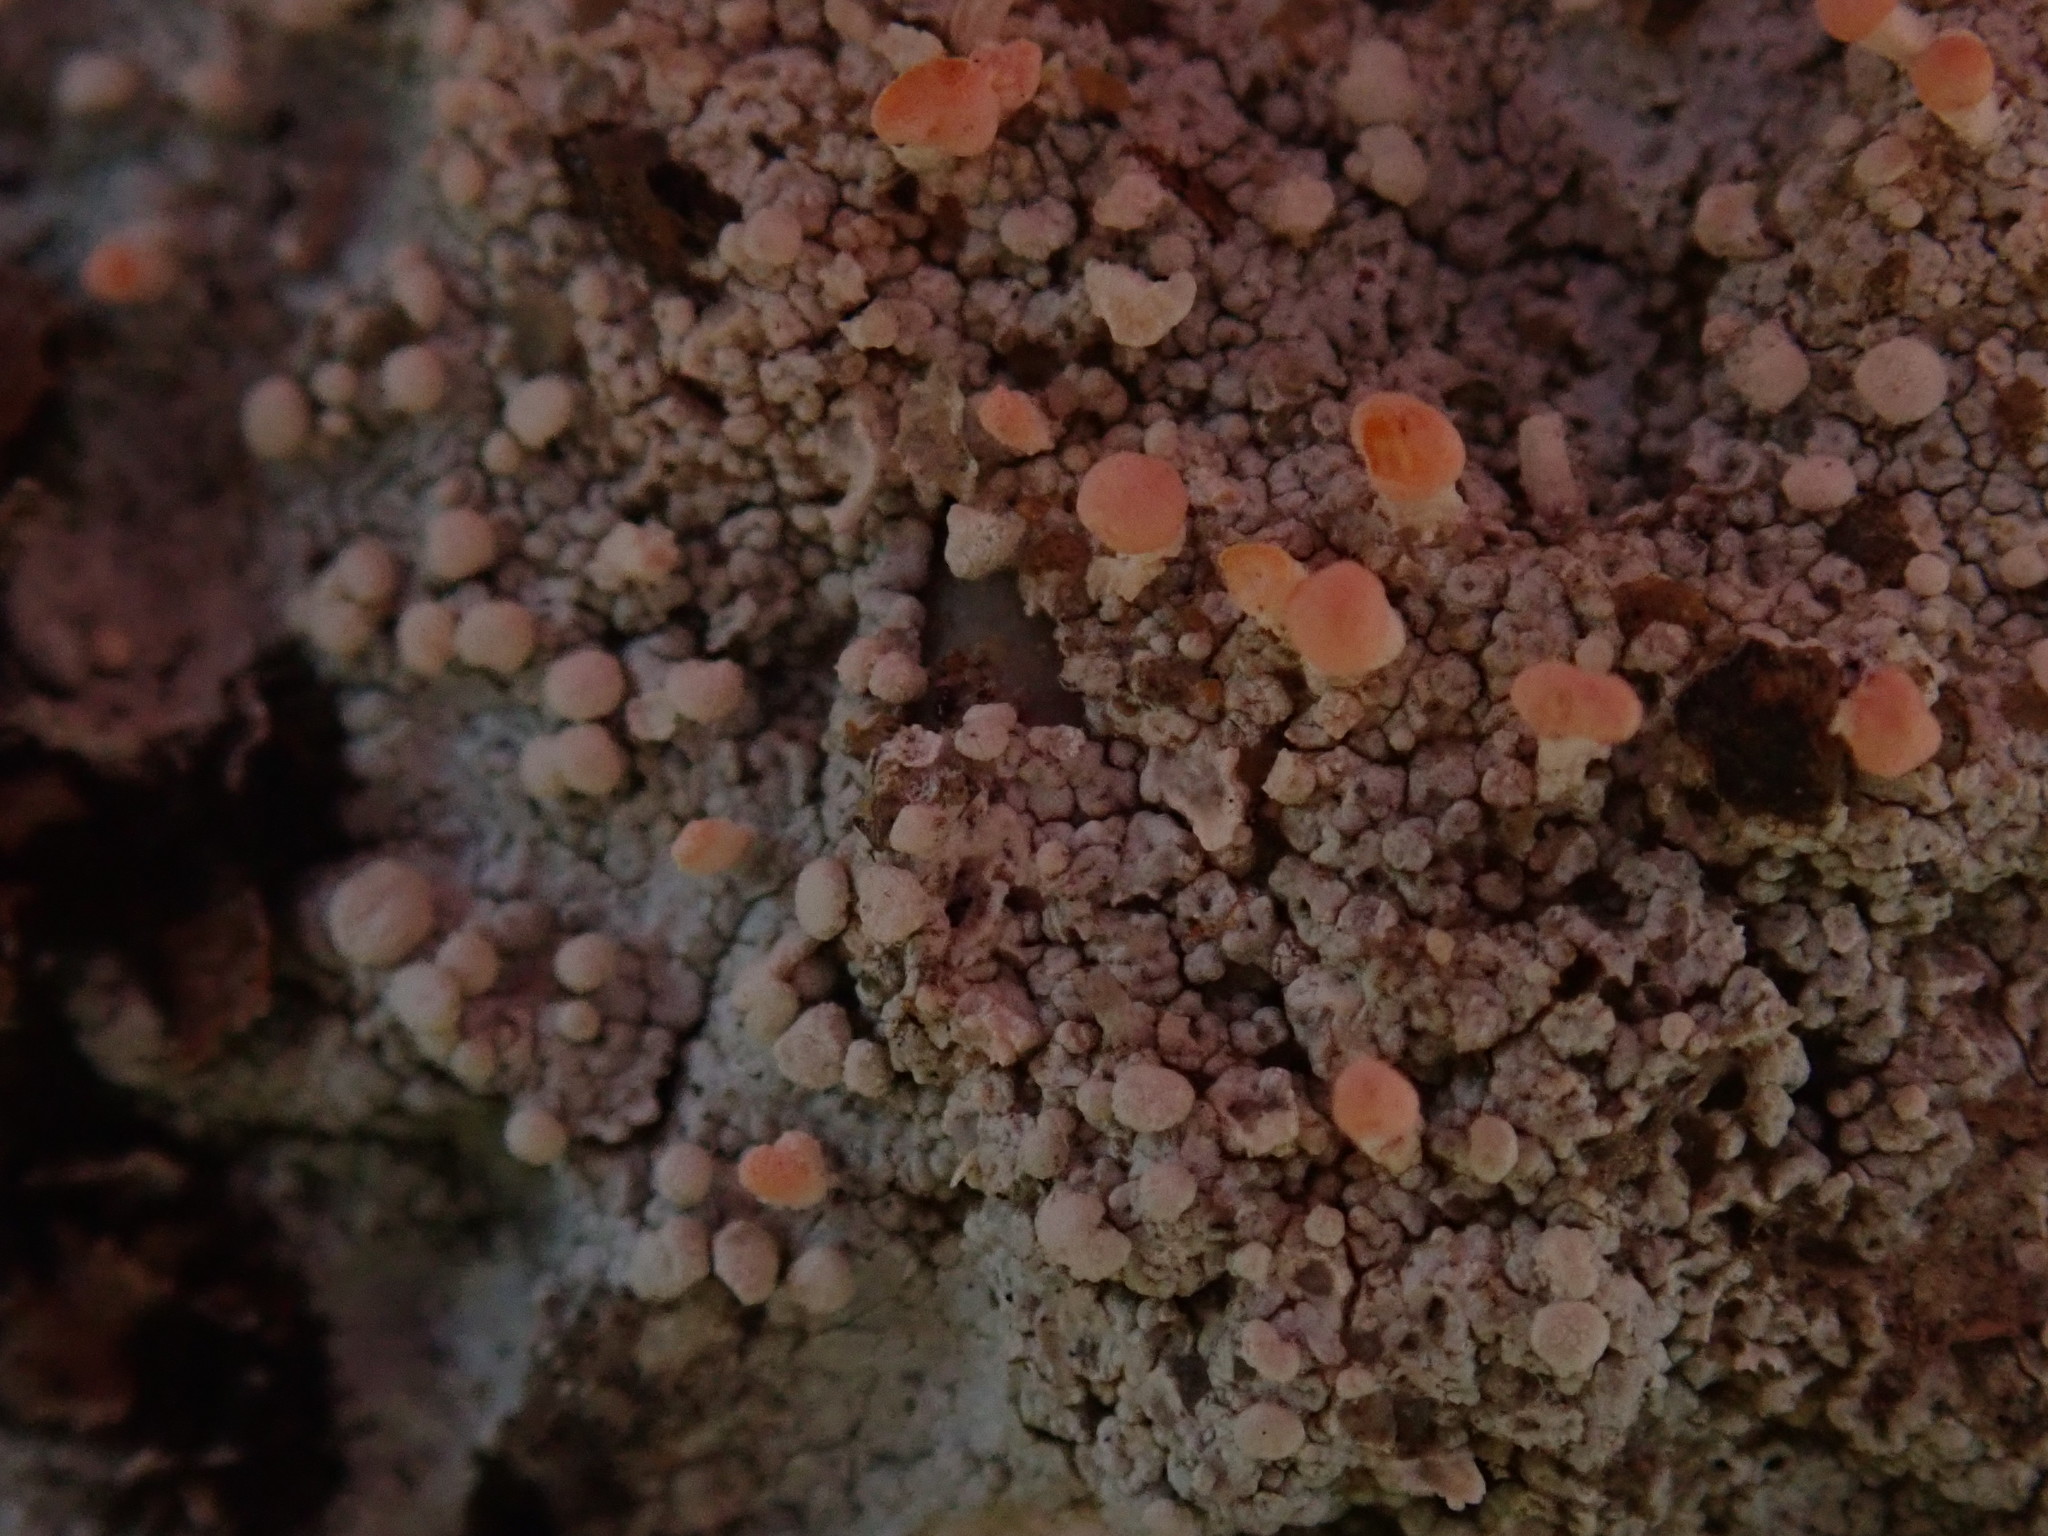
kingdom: Fungi
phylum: Ascomycota
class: Lecanoromycetes
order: Pertusariales
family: Icmadophilaceae
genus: Dibaeis
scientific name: Dibaeis baeomyces
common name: Pink earth lichen
